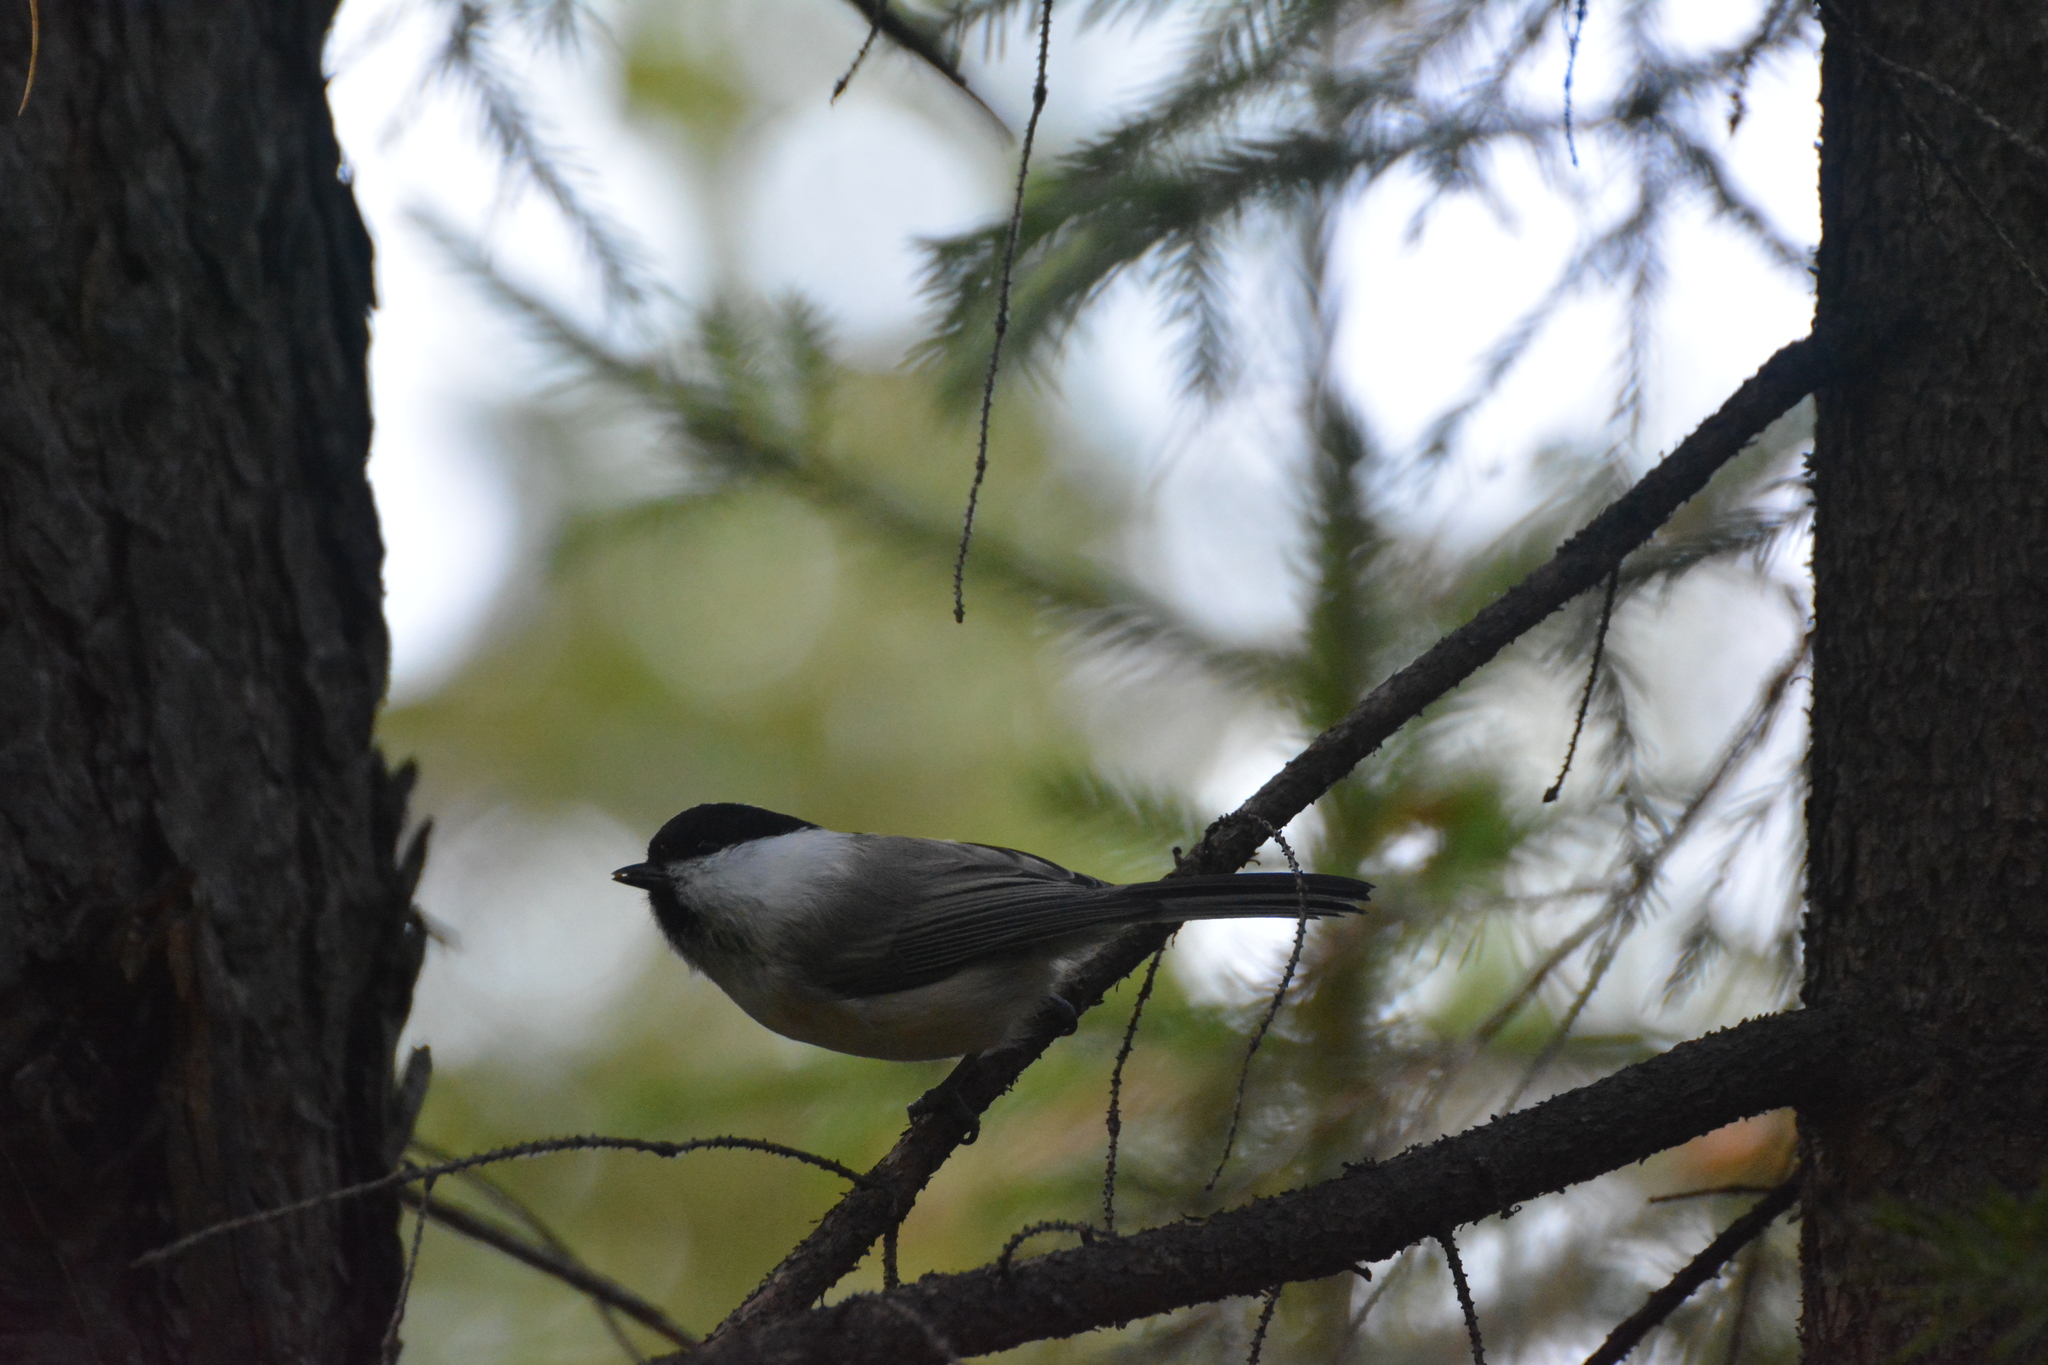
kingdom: Animalia
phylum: Chordata
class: Aves
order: Passeriformes
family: Paridae
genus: Poecile
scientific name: Poecile montanus
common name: Willow tit
